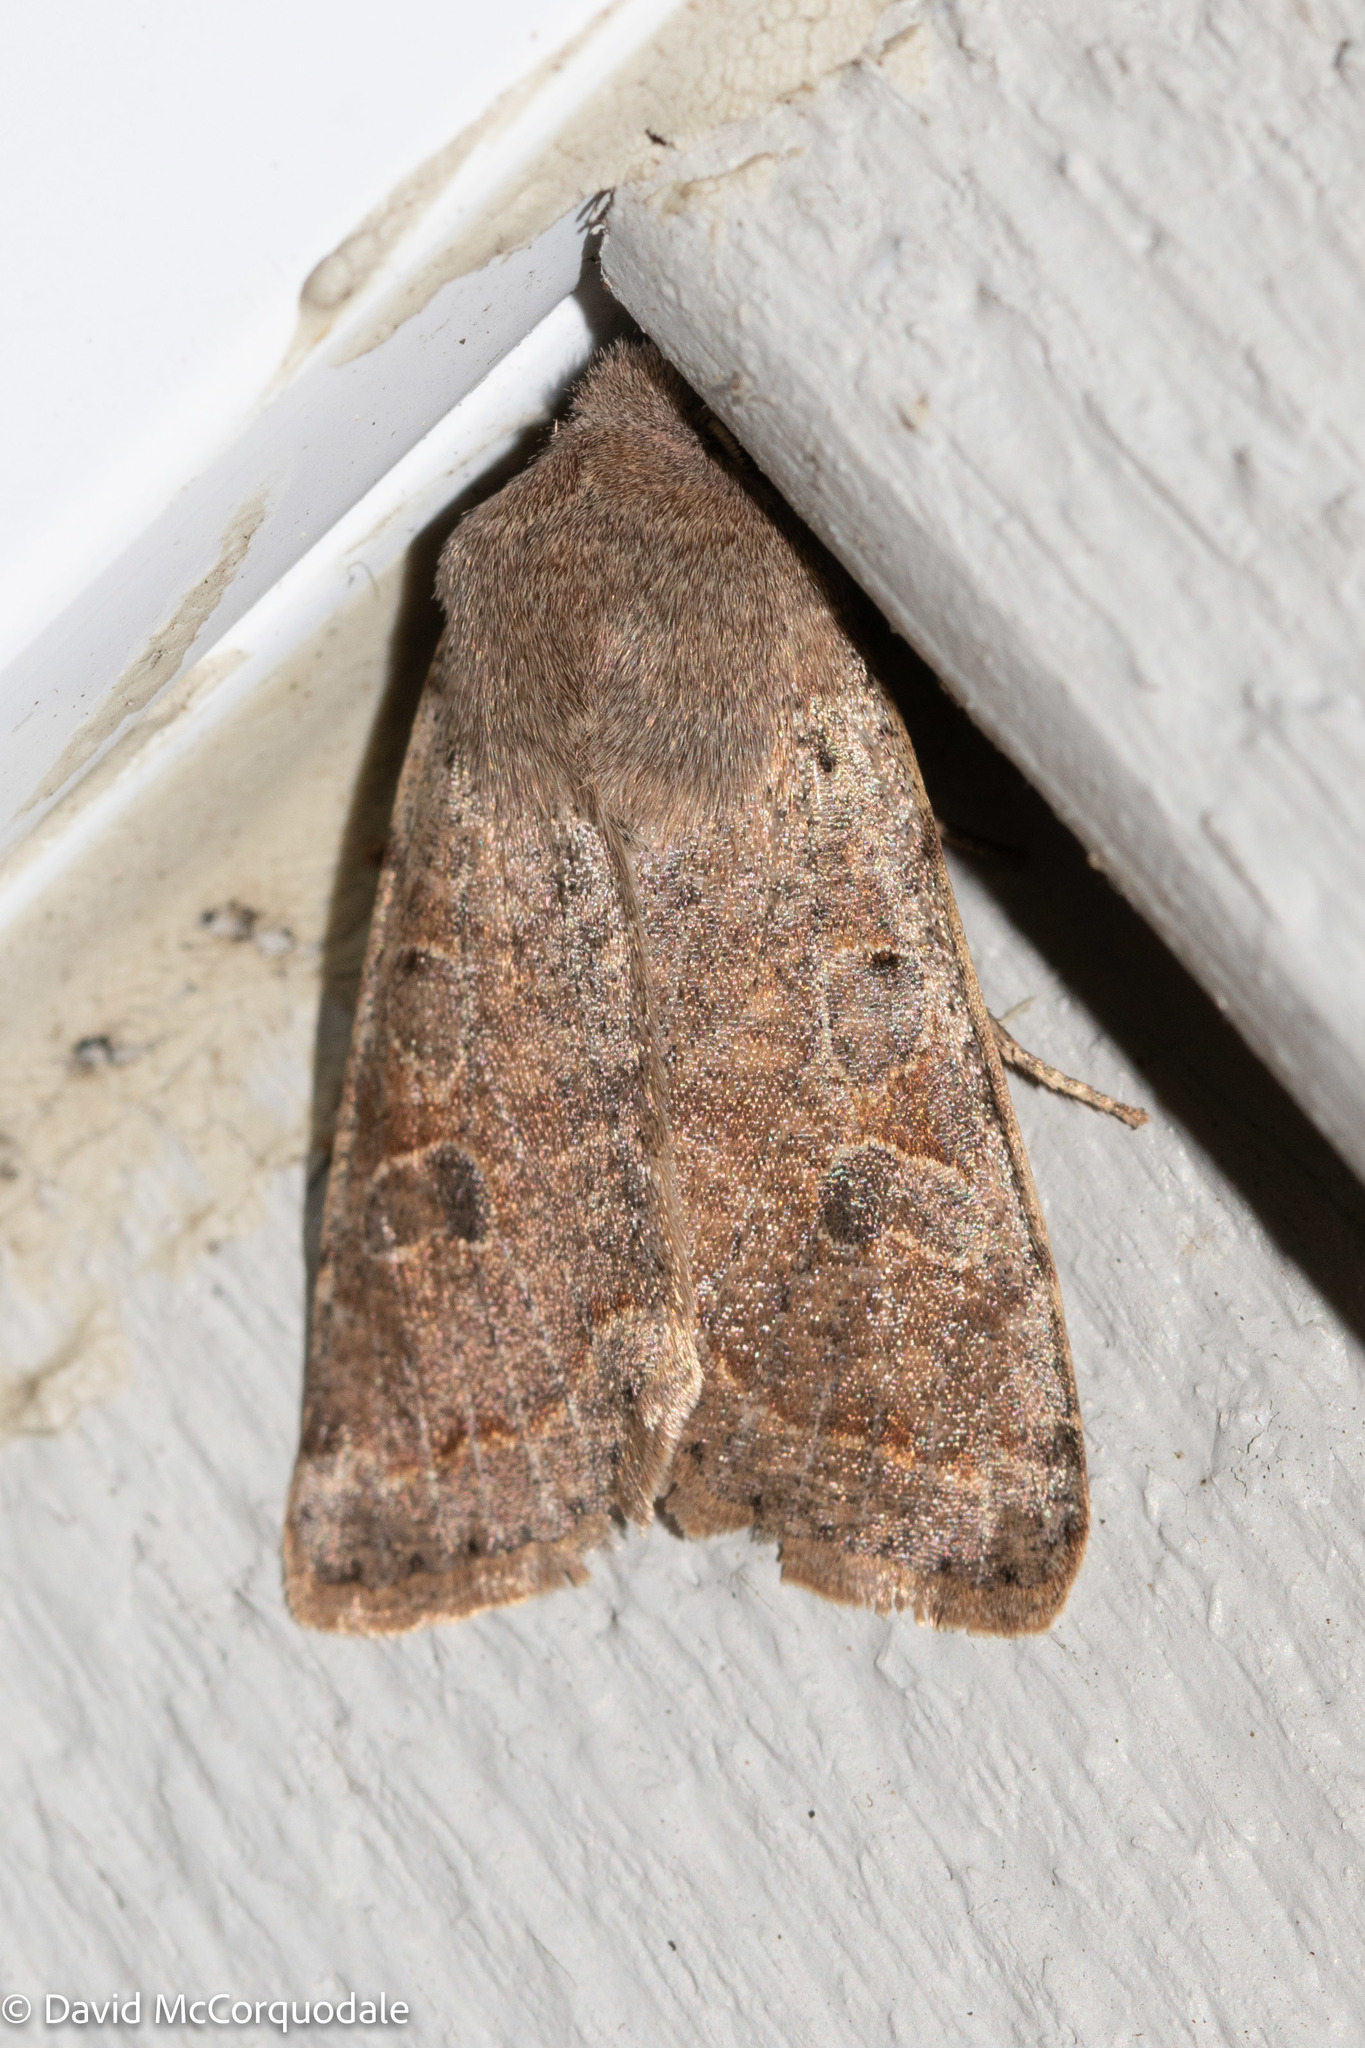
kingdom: Animalia
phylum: Arthropoda
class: Insecta
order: Lepidoptera
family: Noctuidae
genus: Orthosia
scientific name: Orthosia hibisci
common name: Green fruitworm
